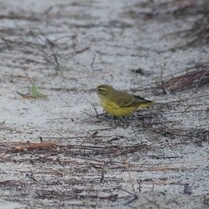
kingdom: Animalia
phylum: Chordata
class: Aves
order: Passeriformes
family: Parulidae
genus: Setophaga
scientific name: Setophaga palmarum
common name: Palm warbler
